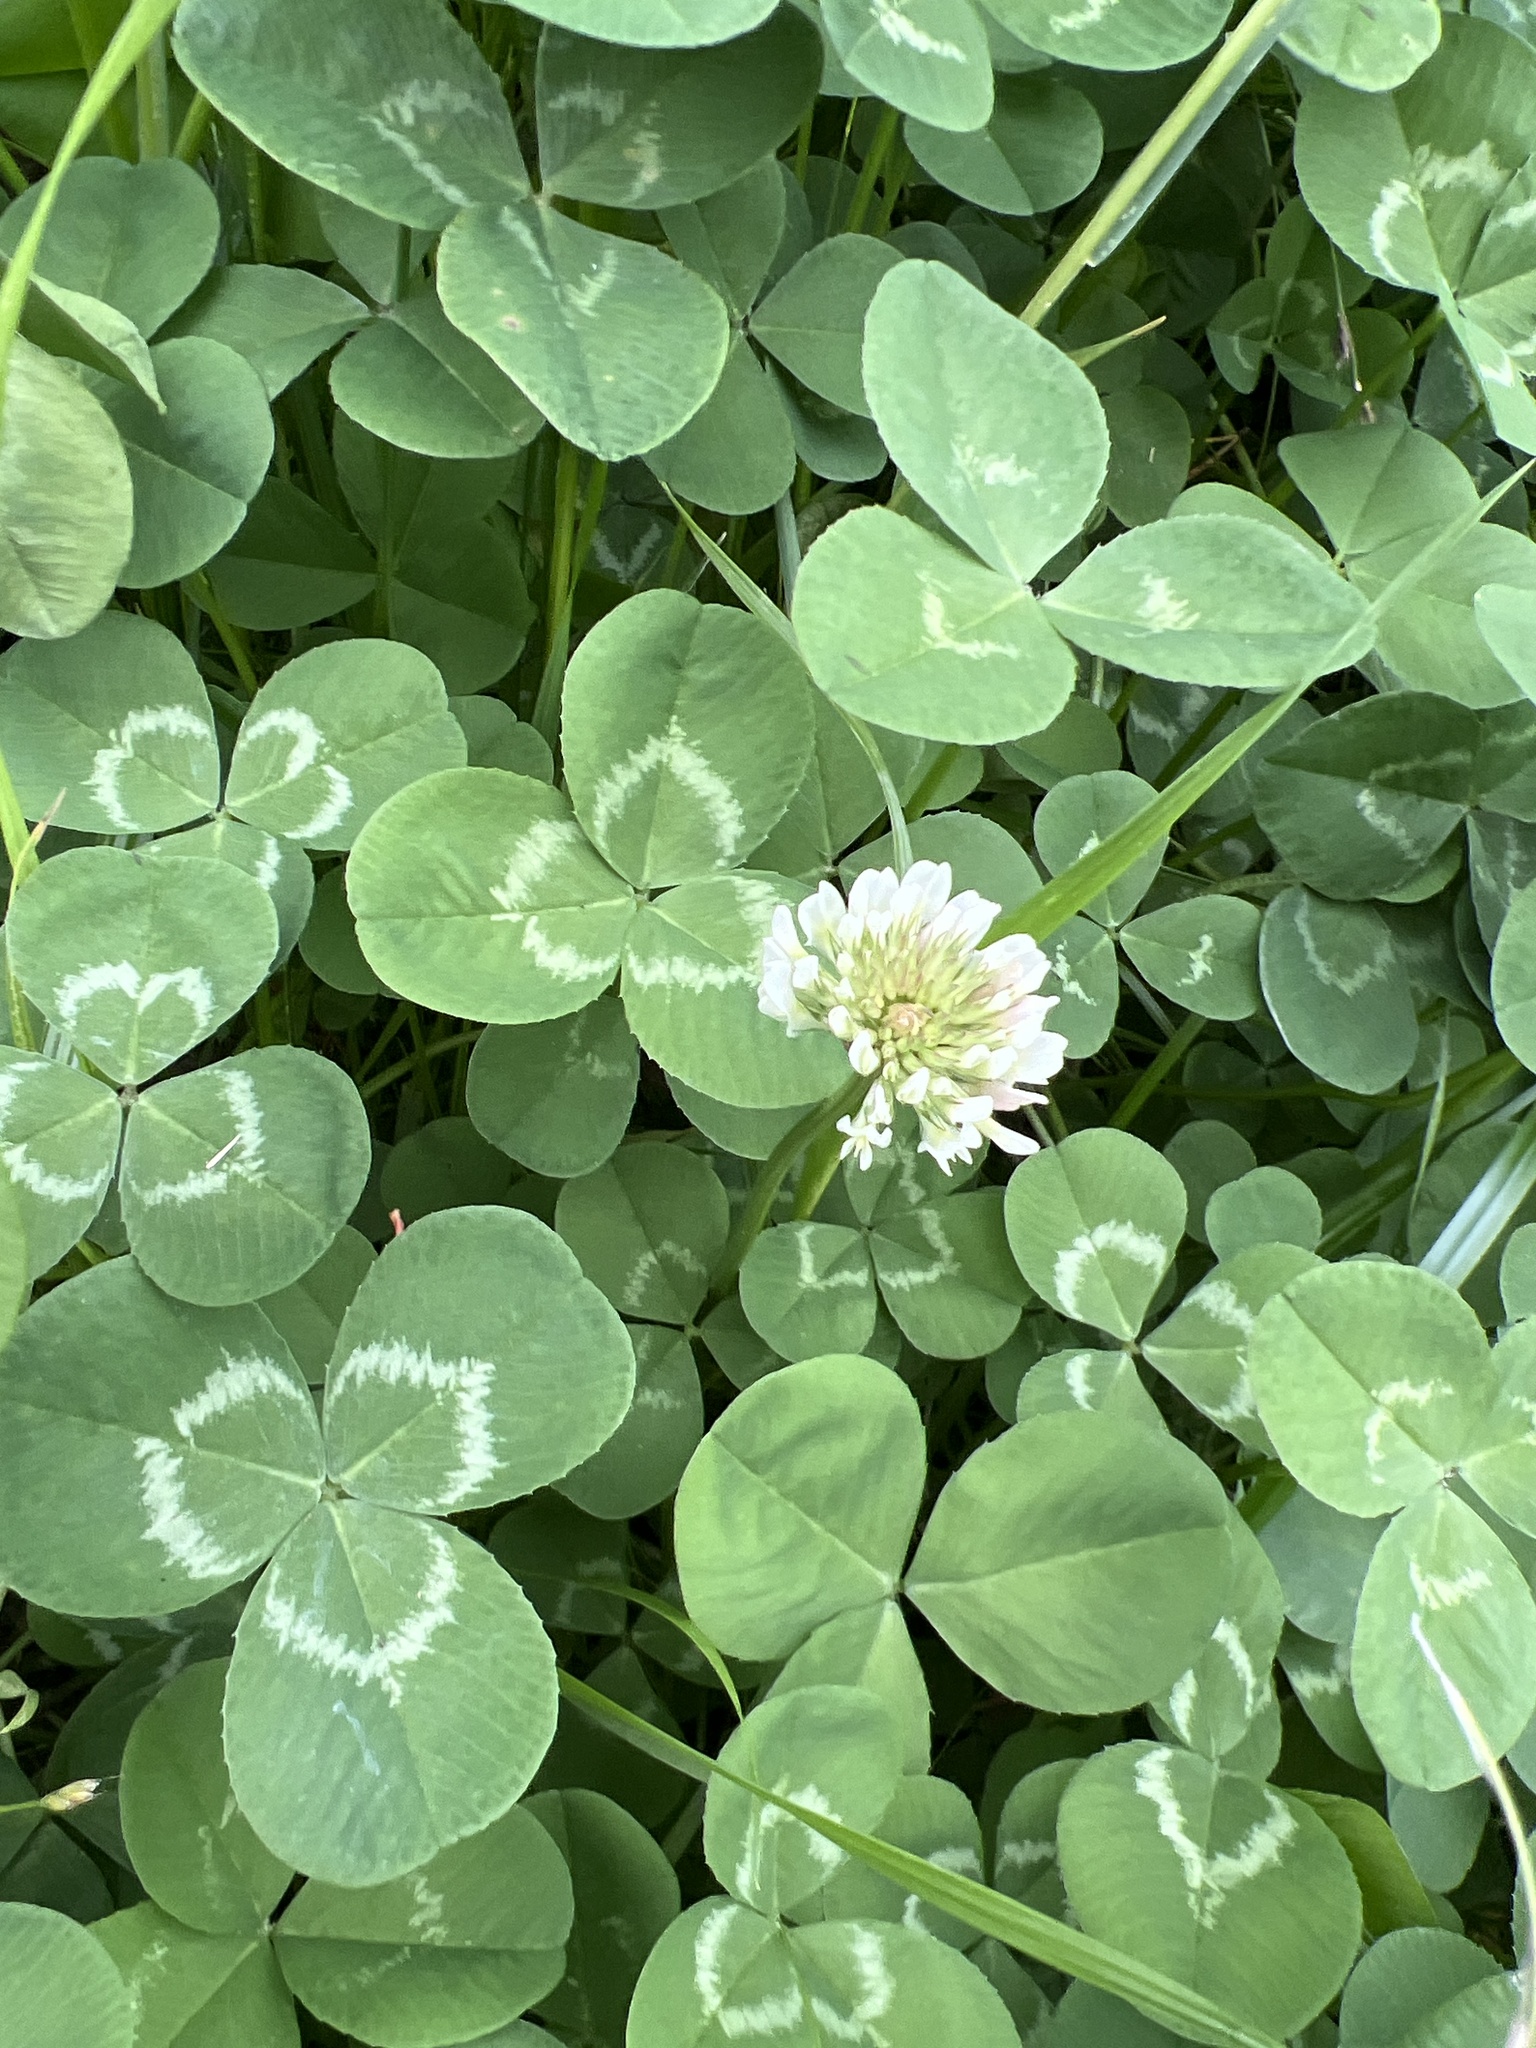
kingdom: Plantae
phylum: Tracheophyta
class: Magnoliopsida
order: Fabales
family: Fabaceae
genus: Trifolium
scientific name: Trifolium repens
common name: White clover
